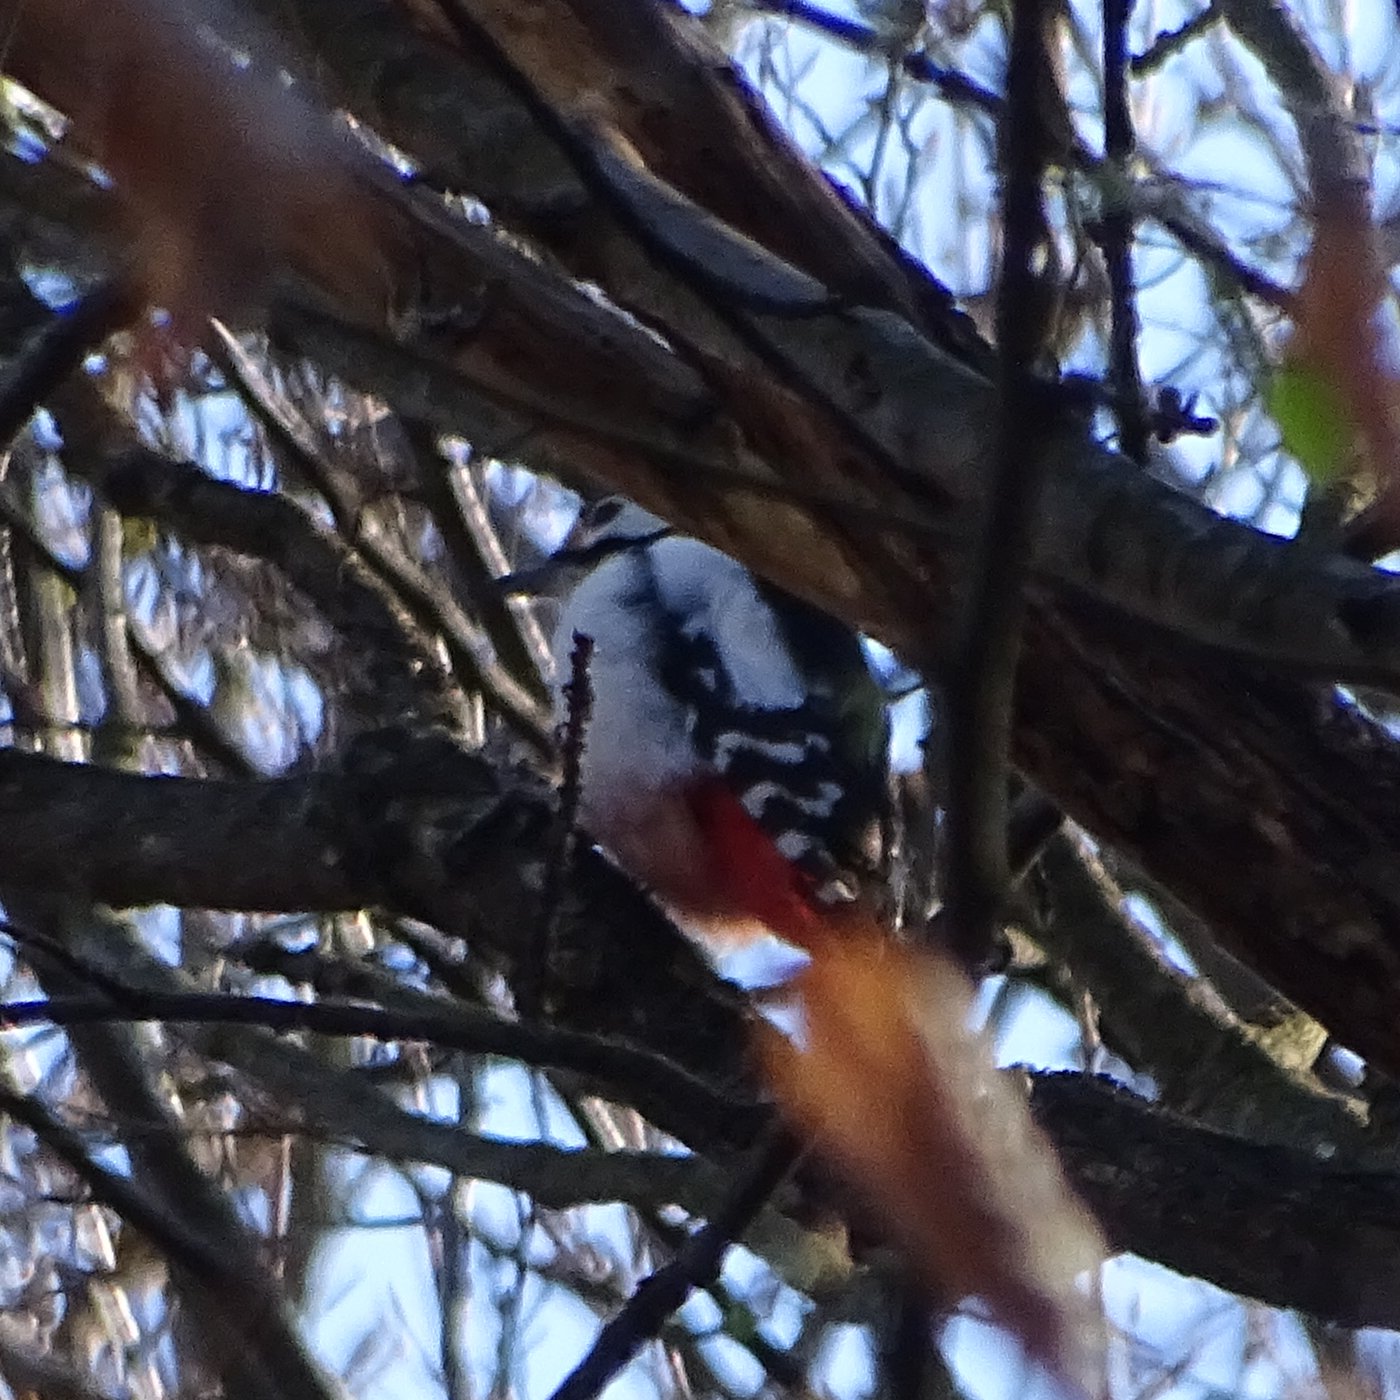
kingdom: Animalia
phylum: Chordata
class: Aves
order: Piciformes
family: Picidae
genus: Dendrocopos
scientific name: Dendrocopos major
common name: Great spotted woodpecker
